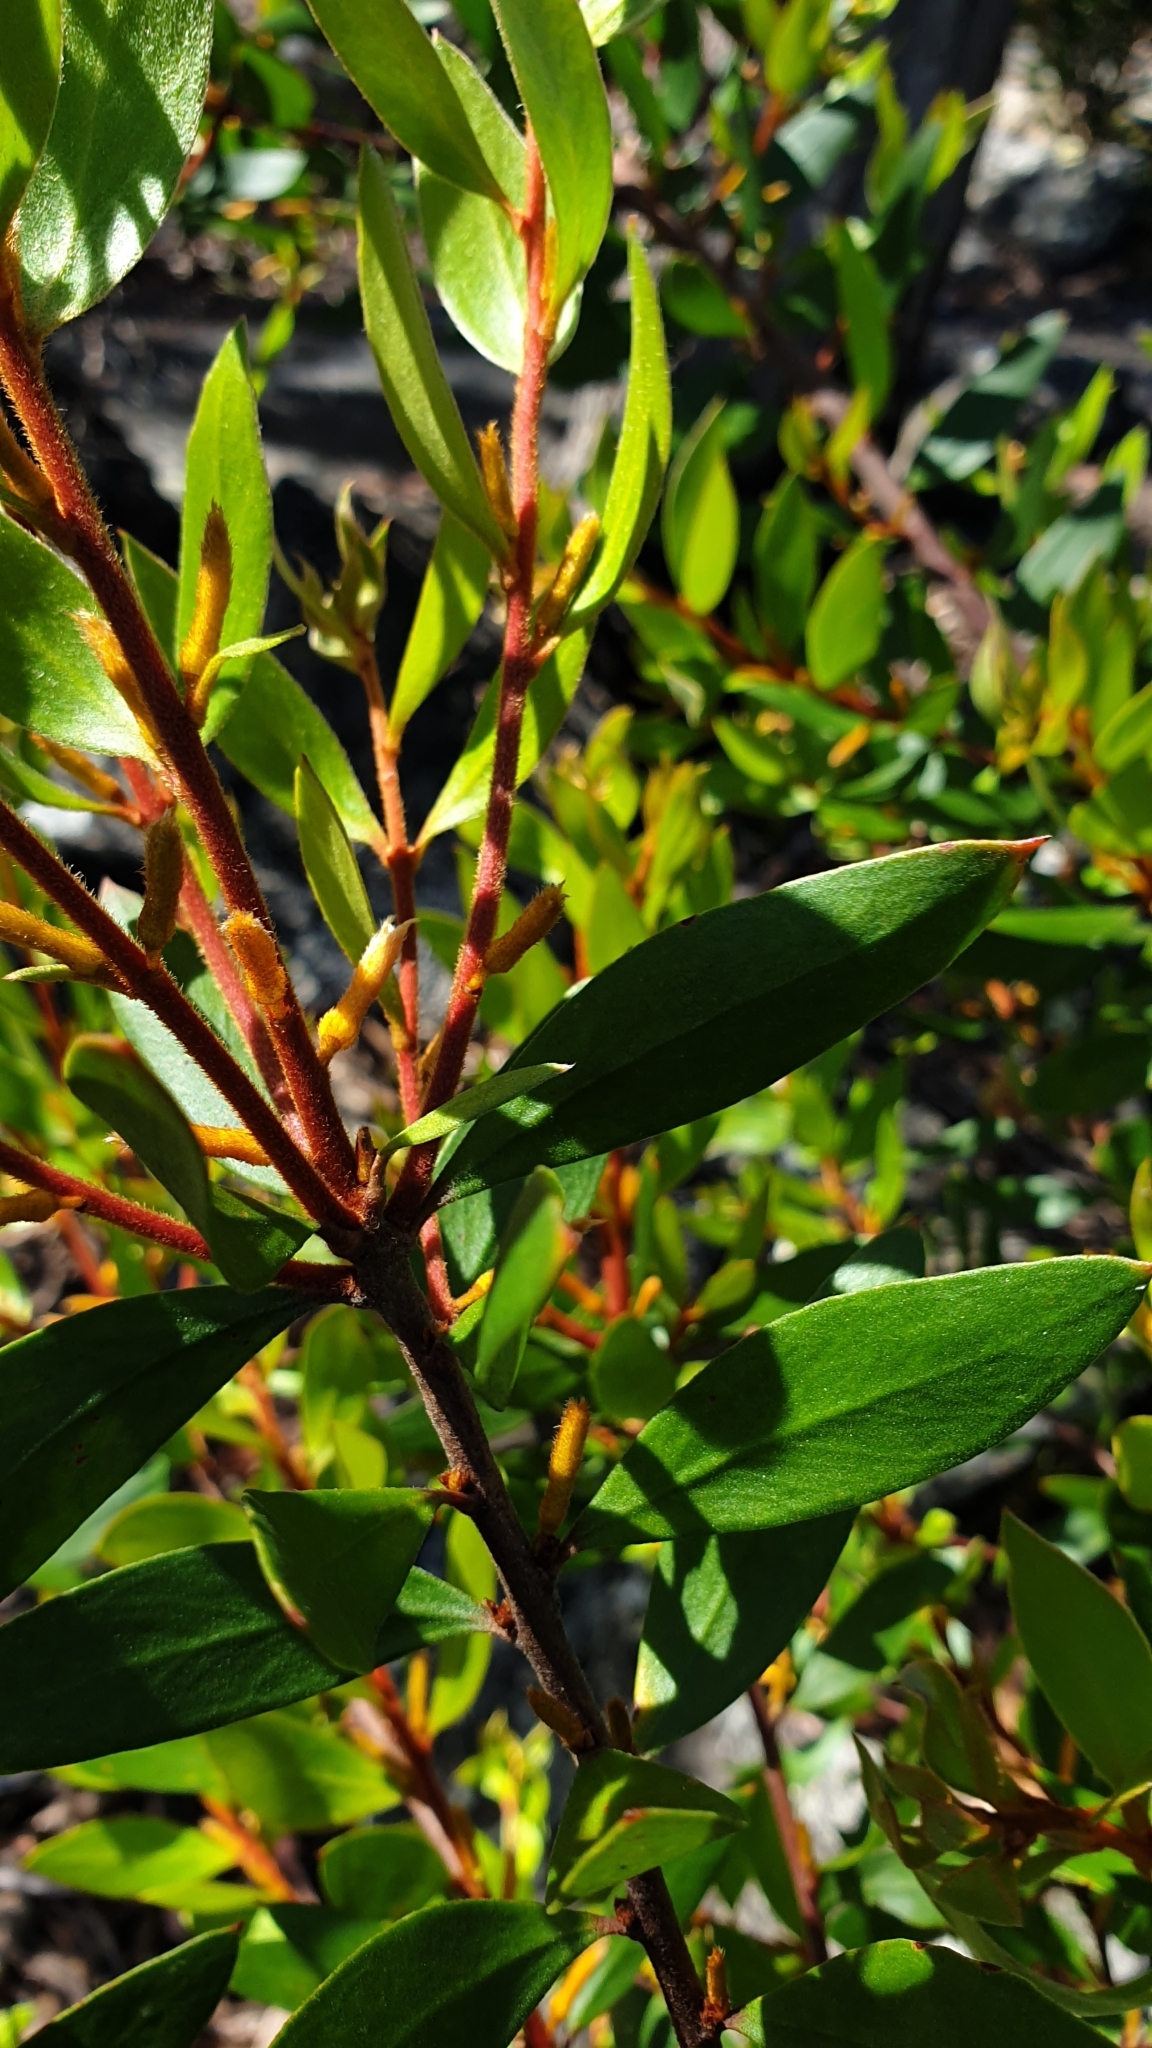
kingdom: Plantae
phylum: Tracheophyta
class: Magnoliopsida
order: Proteales
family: Proteaceae
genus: Persoonia
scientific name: Persoonia rufa
